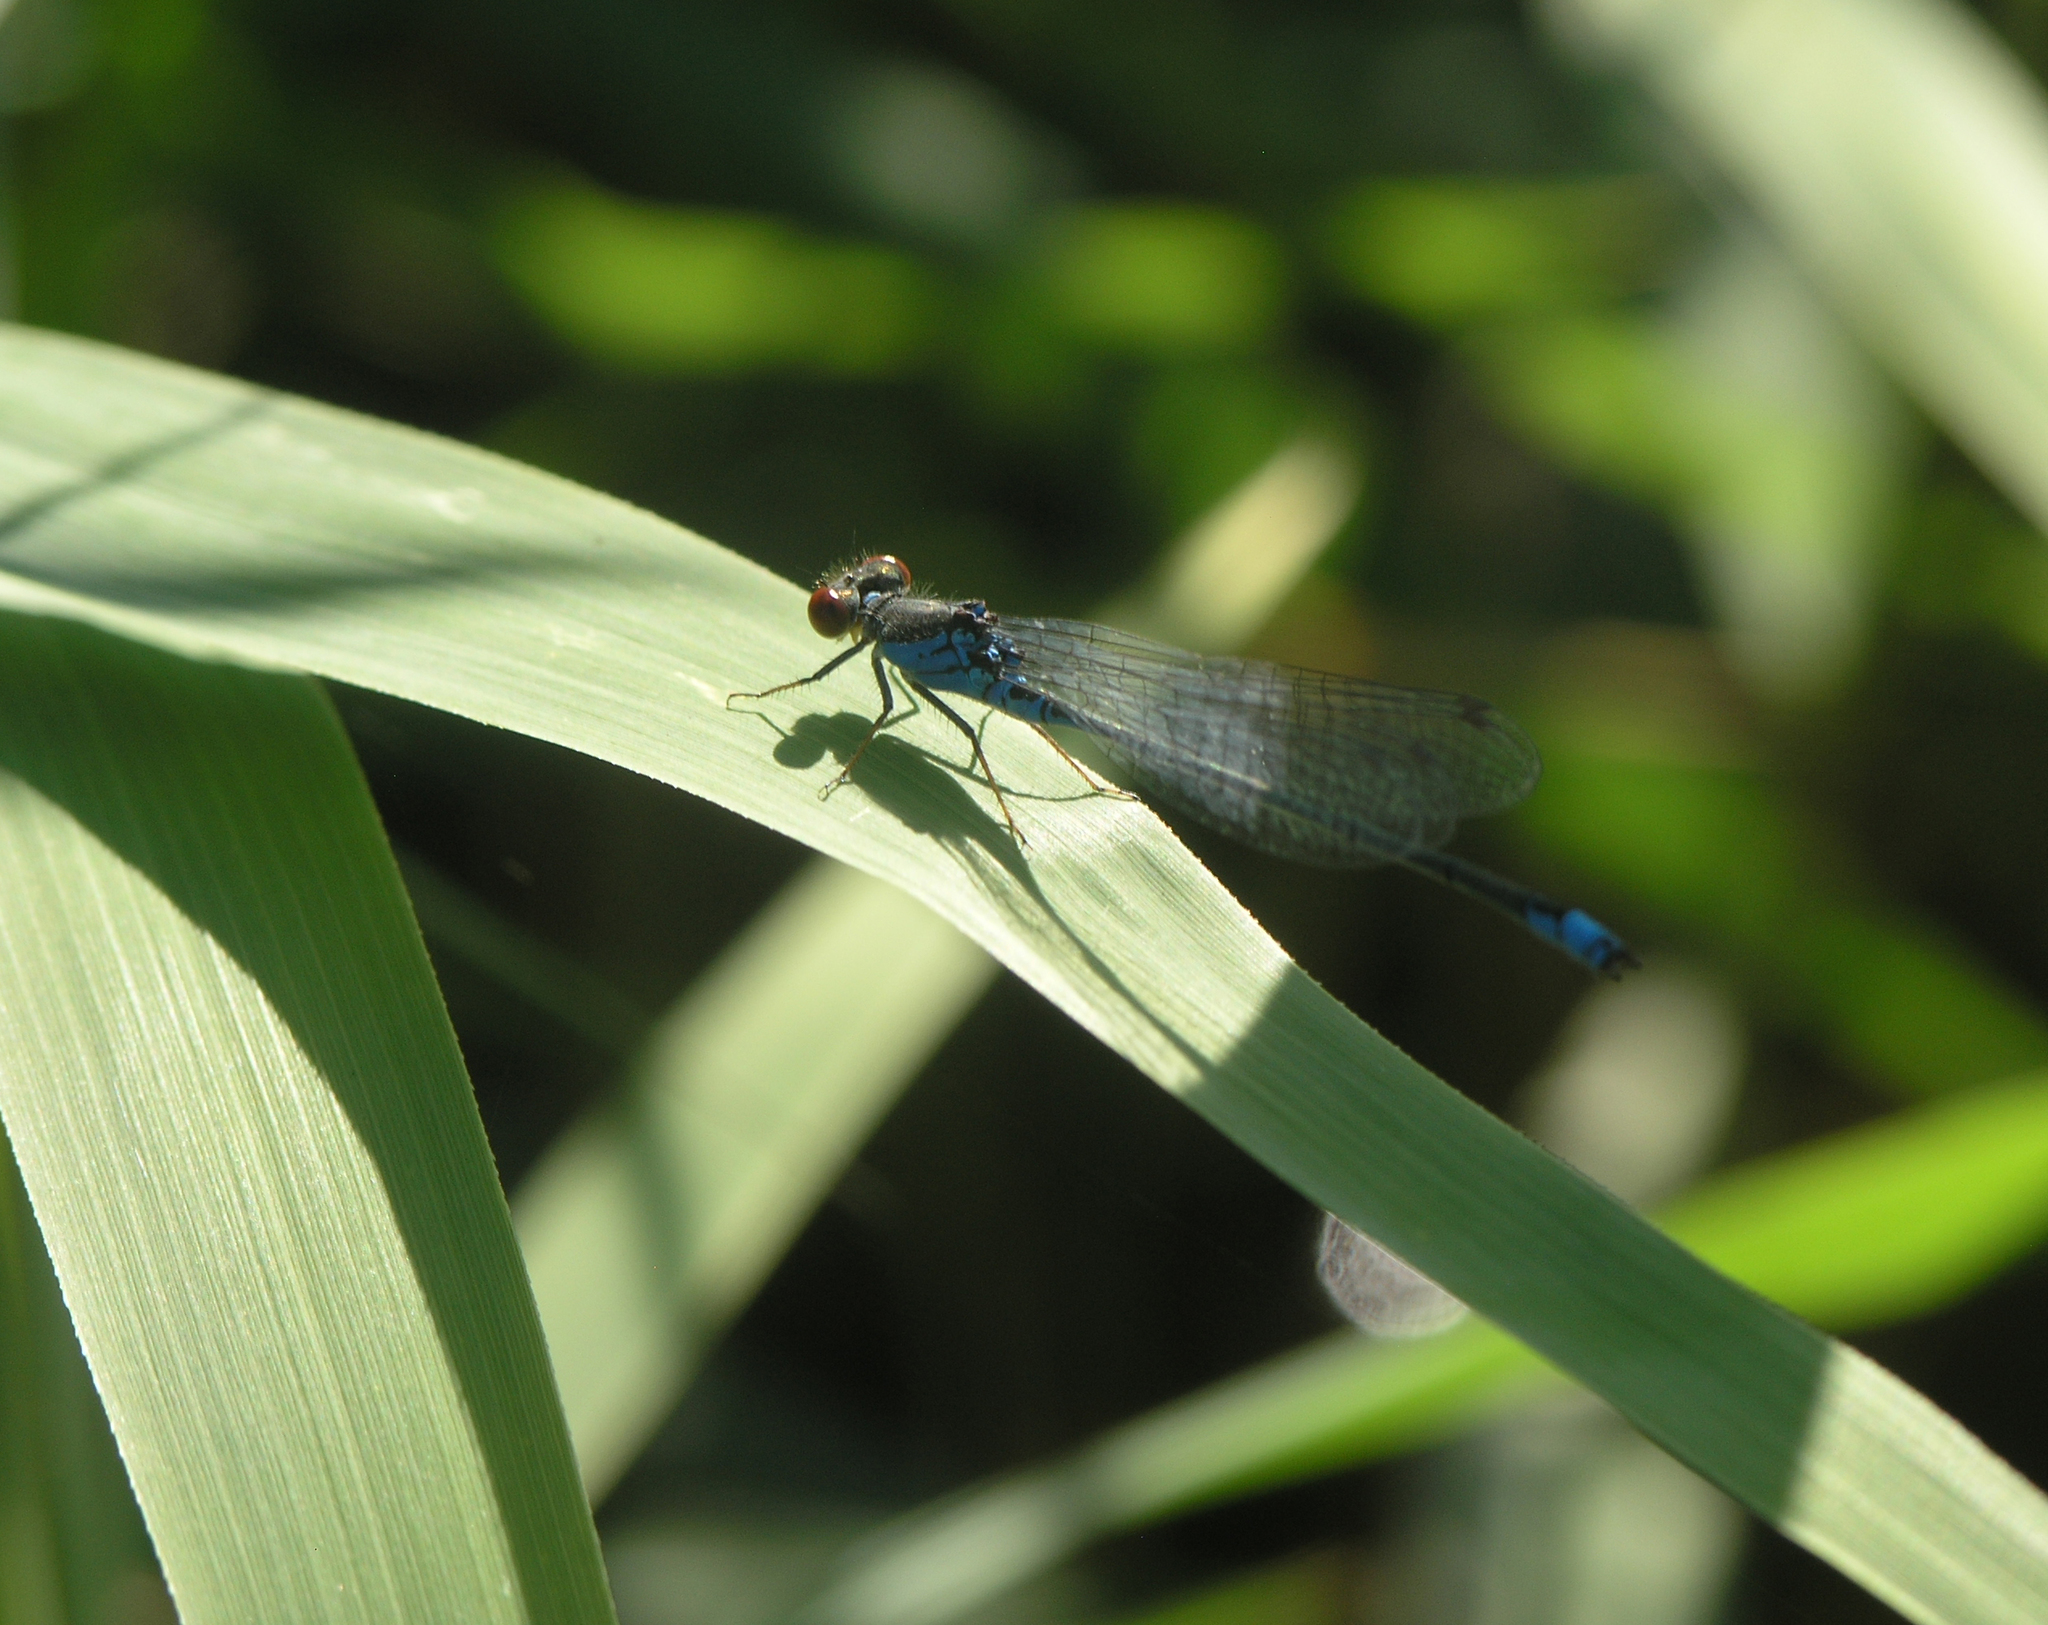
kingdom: Animalia
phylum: Arthropoda
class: Insecta
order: Odonata
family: Coenagrionidae
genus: Erythromma
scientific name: Erythromma viridulum
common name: Small red-eyed damselfly
